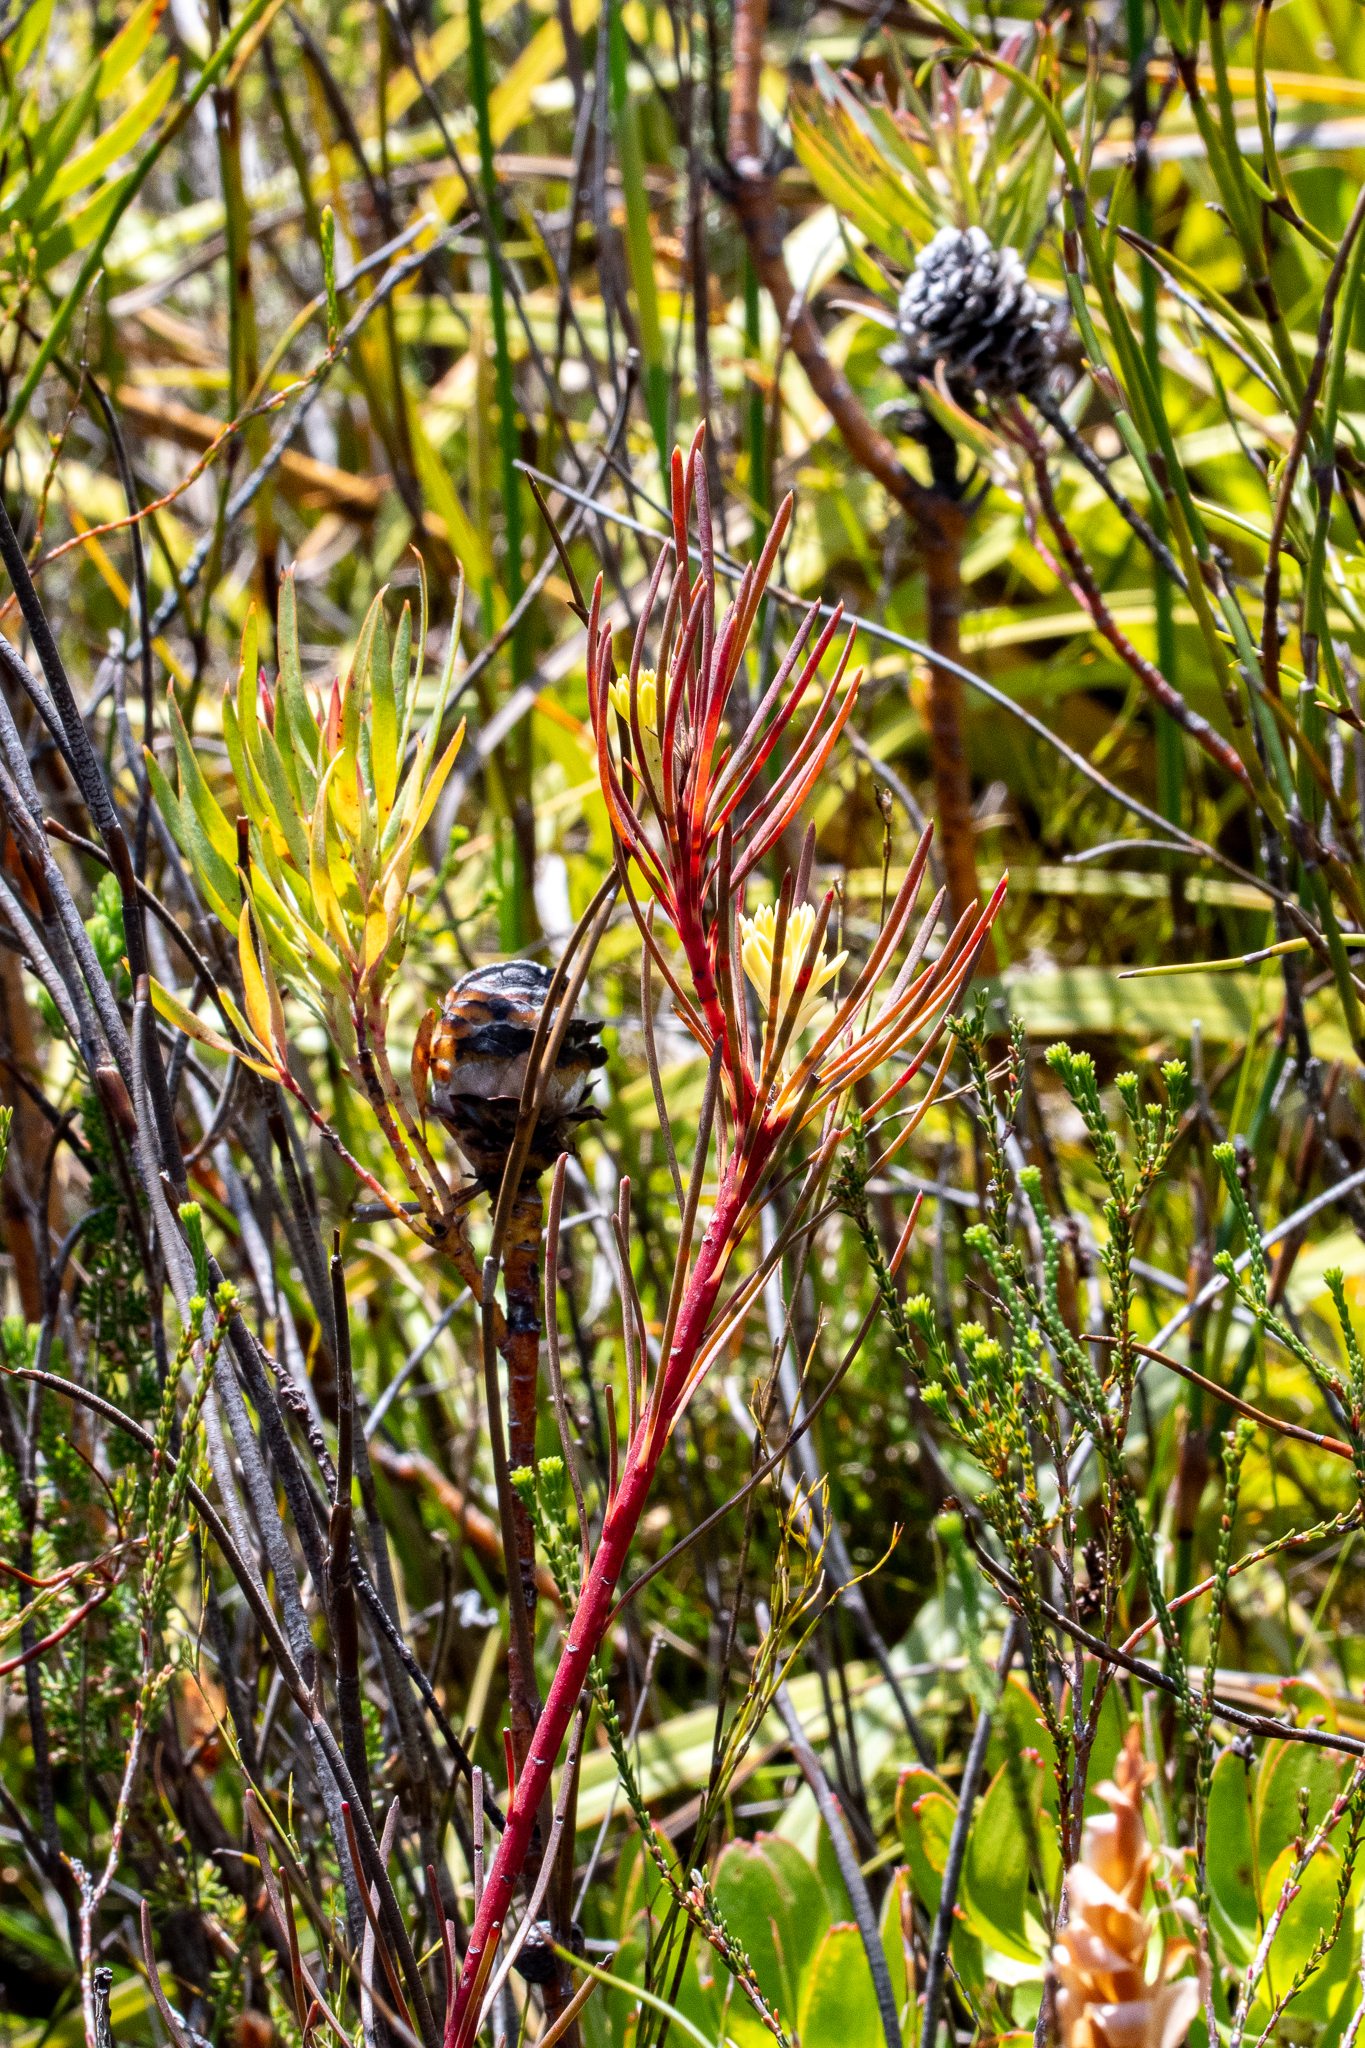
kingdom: Plantae
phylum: Tracheophyta
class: Magnoliopsida
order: Proteales
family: Proteaceae
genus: Aulax
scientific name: Aulax cancellata
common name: Channel-leaf featherbush
